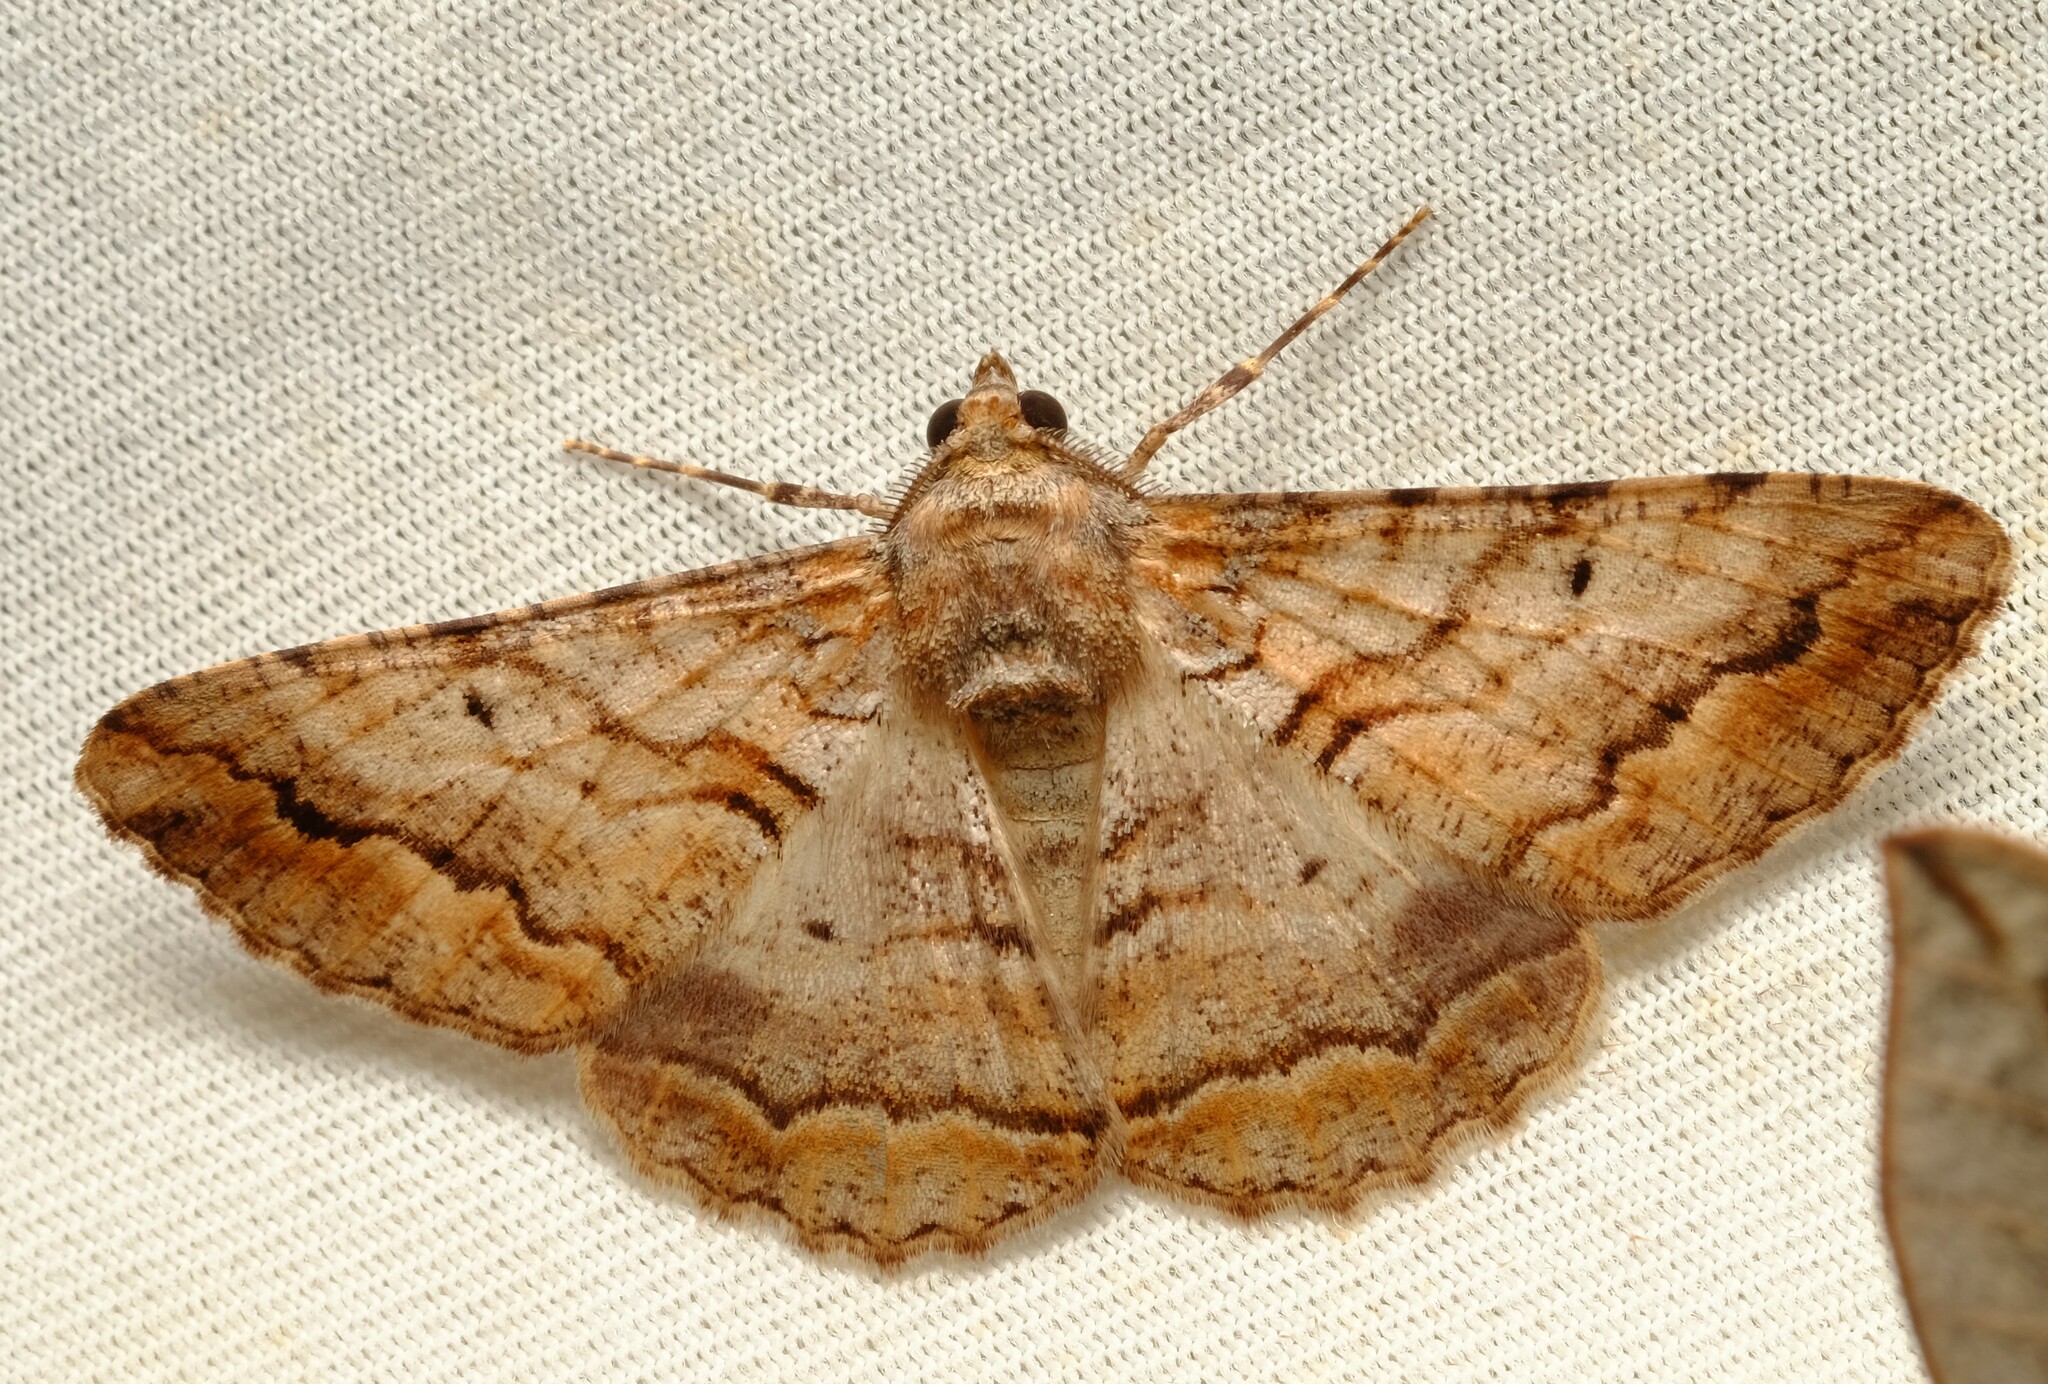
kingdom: Animalia
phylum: Arthropoda
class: Insecta
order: Lepidoptera
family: Geometridae
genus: Gastrinodes
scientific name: Gastrinodes bitaeniaria
